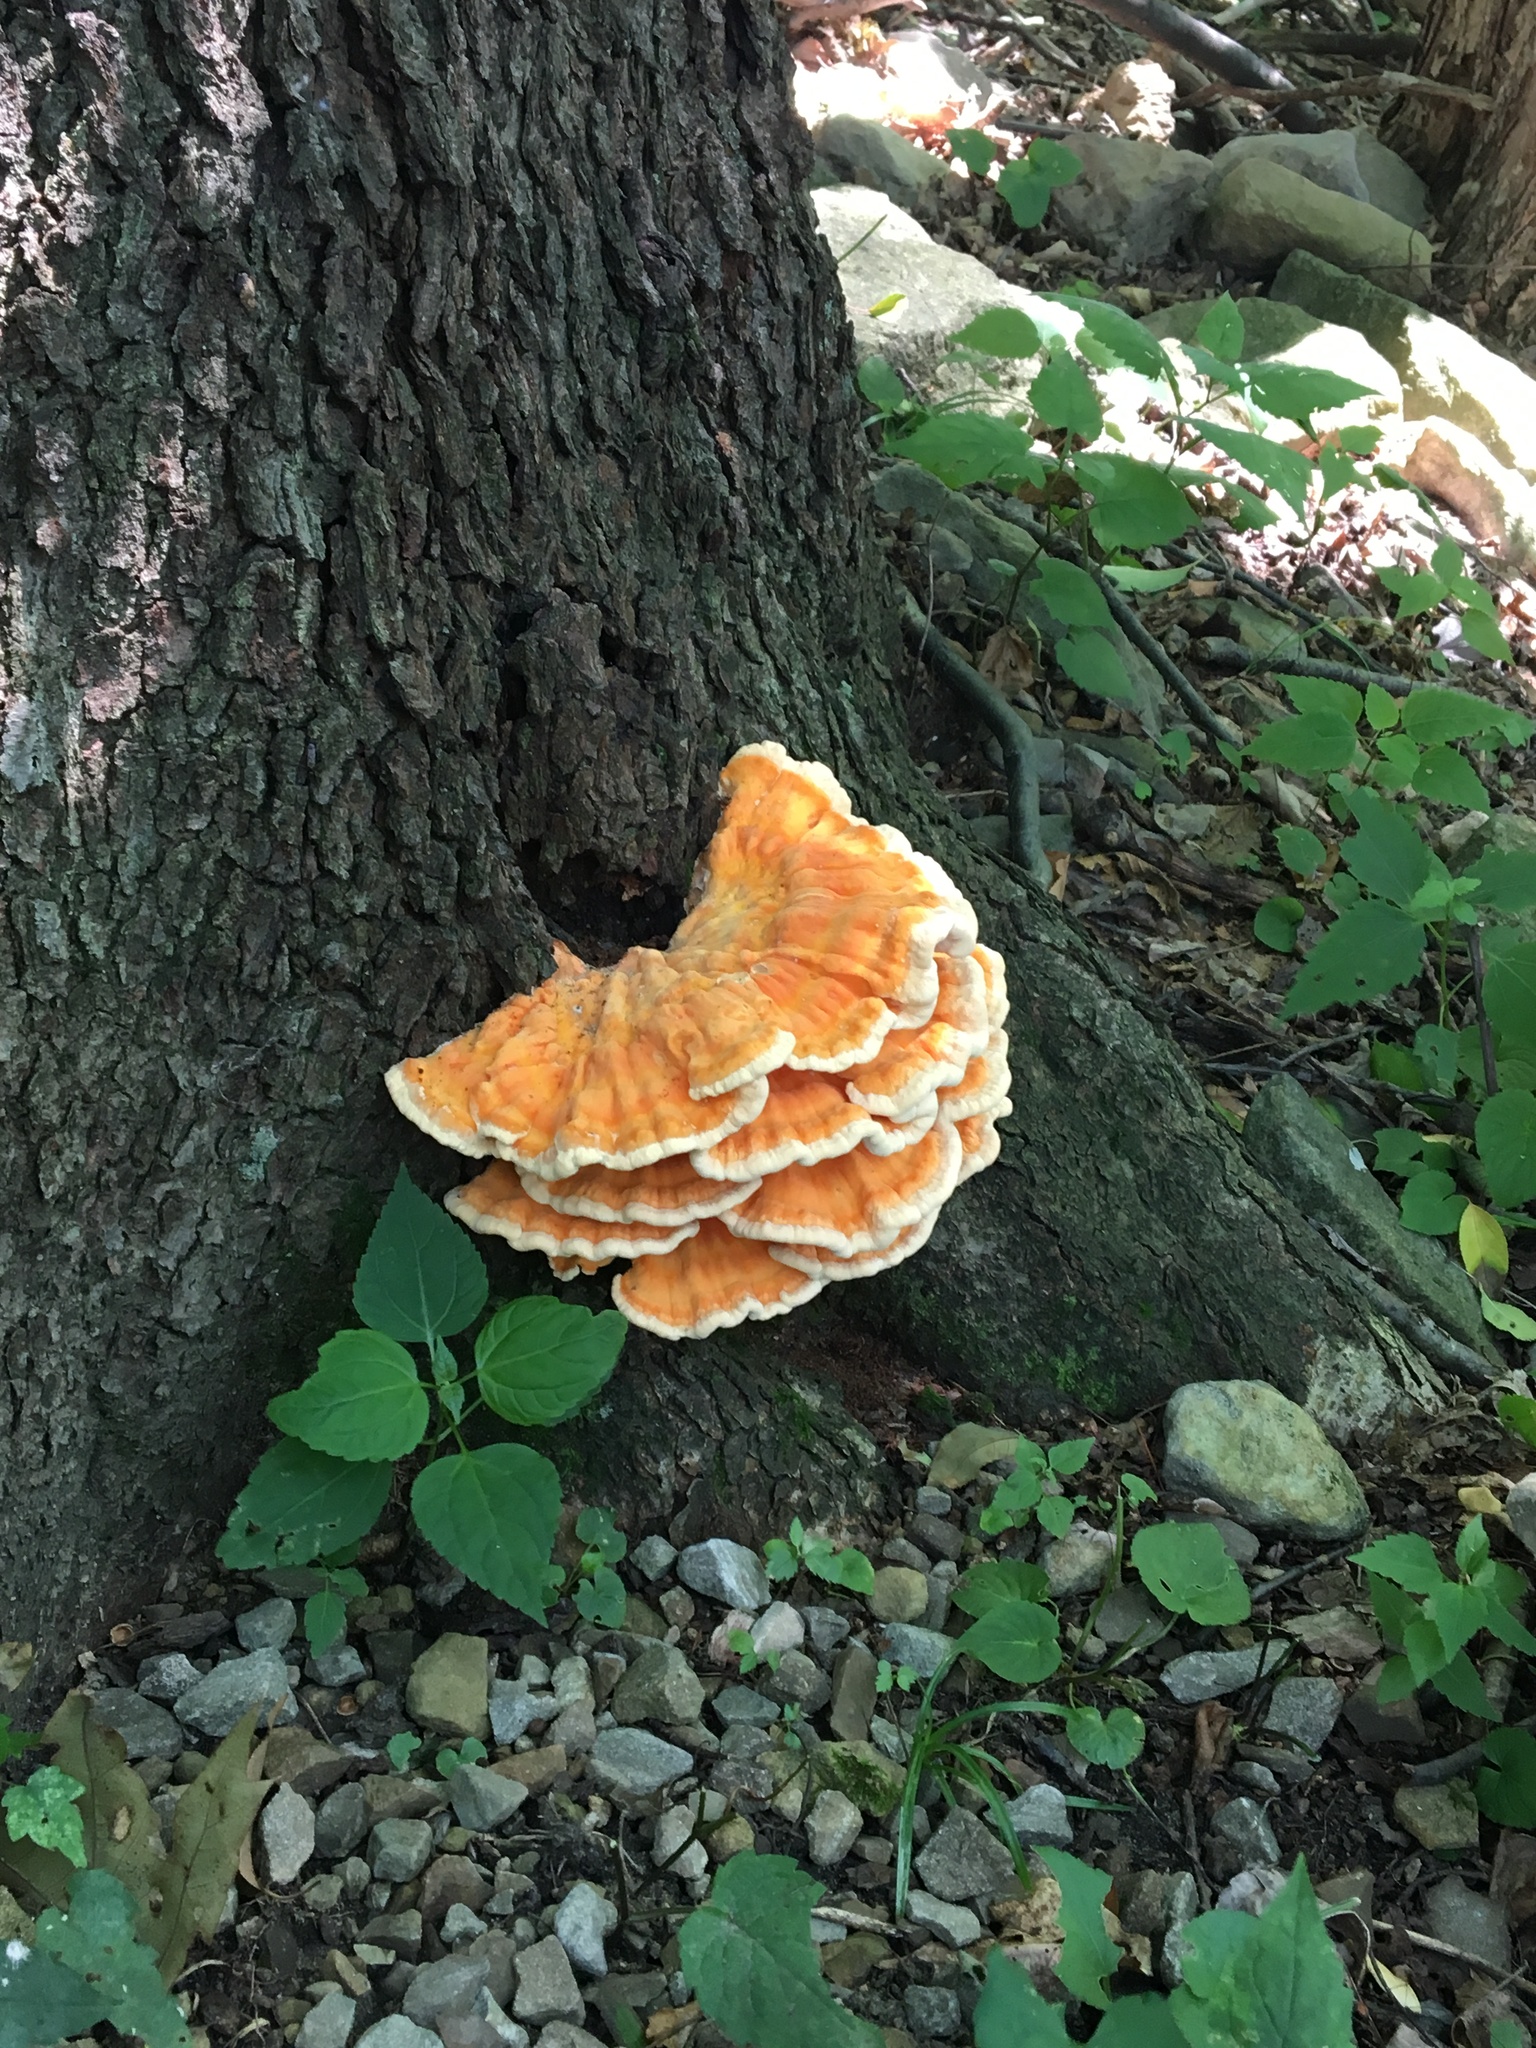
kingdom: Fungi
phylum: Basidiomycota
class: Agaricomycetes
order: Polyporales
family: Laetiporaceae
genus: Laetiporus
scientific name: Laetiporus sulphureus
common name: Chicken of the woods
